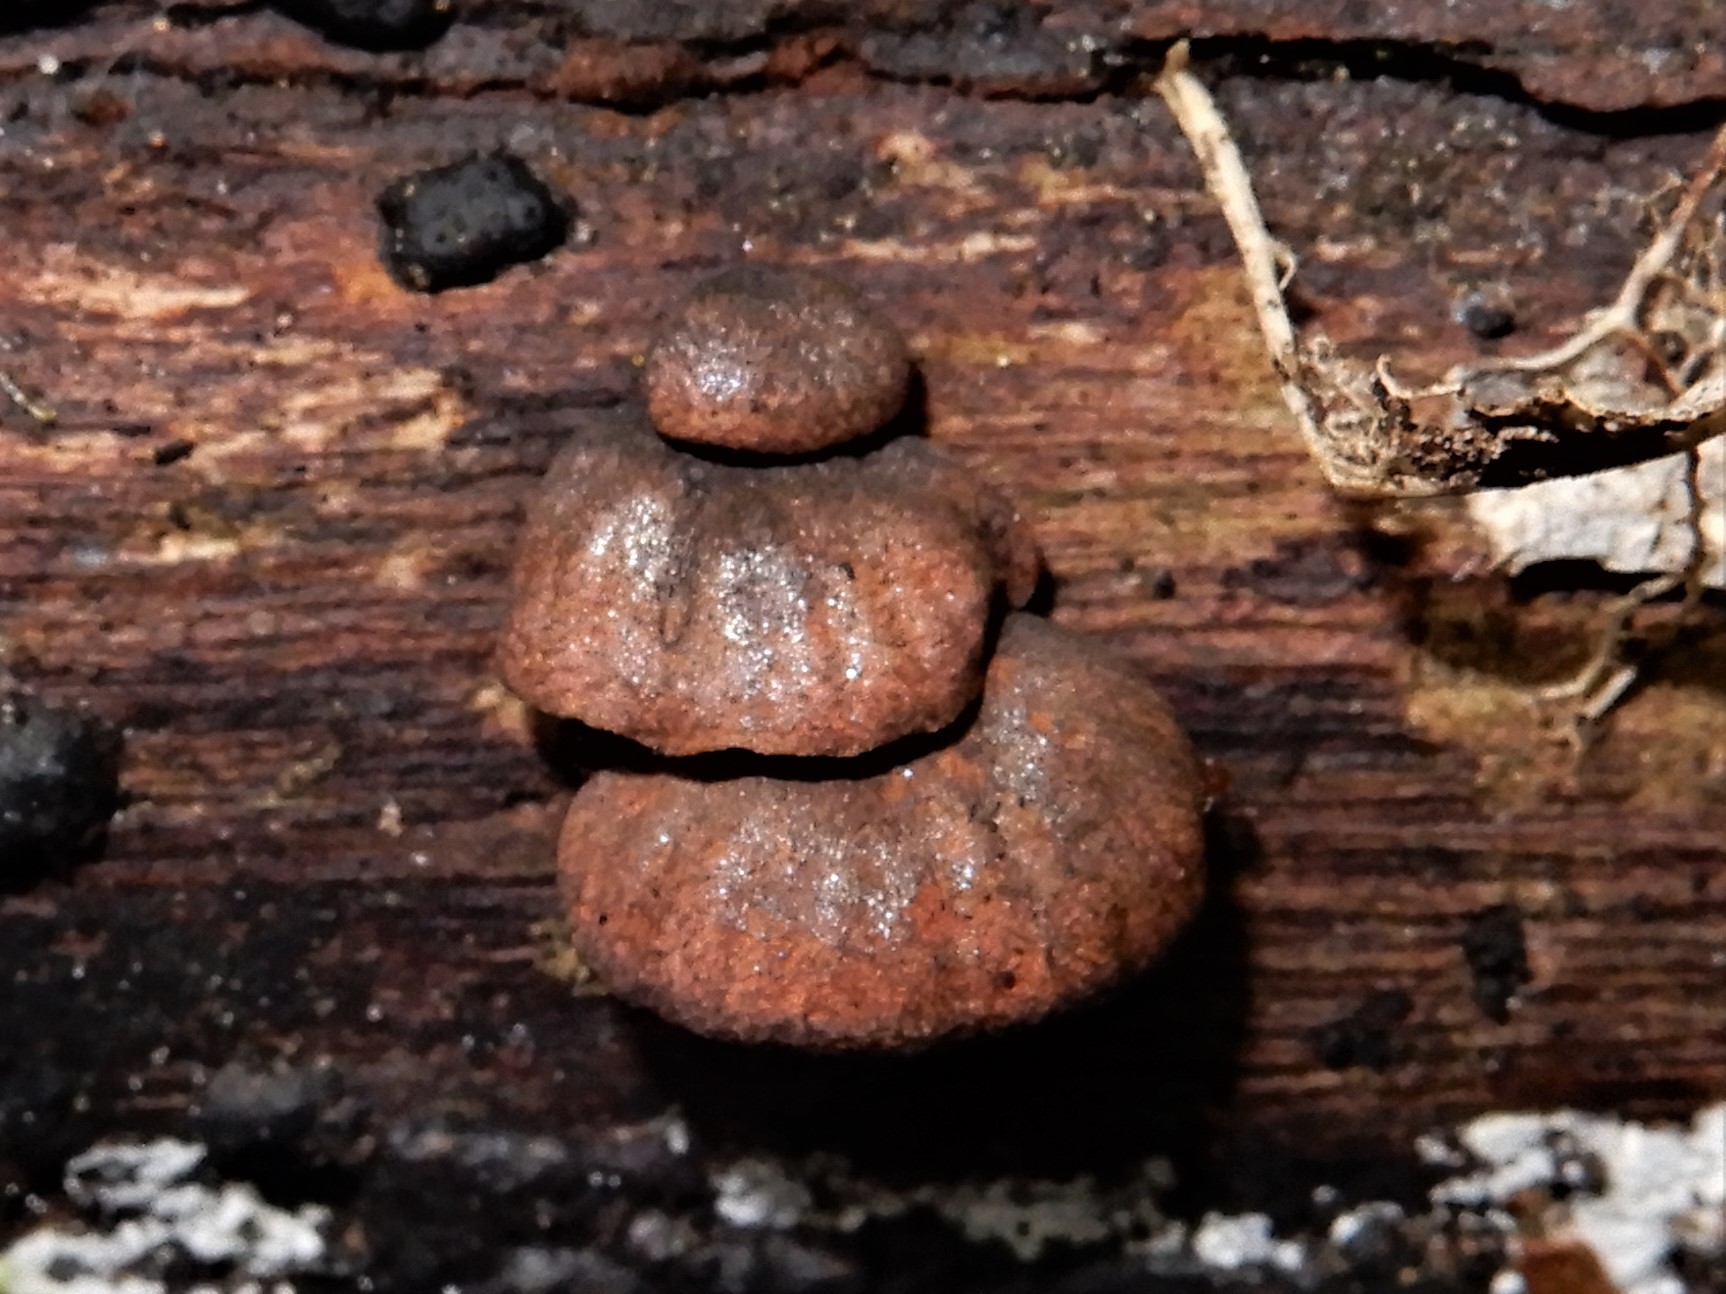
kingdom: Fungi
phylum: Basidiomycota
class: Agaricomycetes
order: Agaricales
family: Omphalotaceae
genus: Anthracophyllum
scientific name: Anthracophyllum archeri
